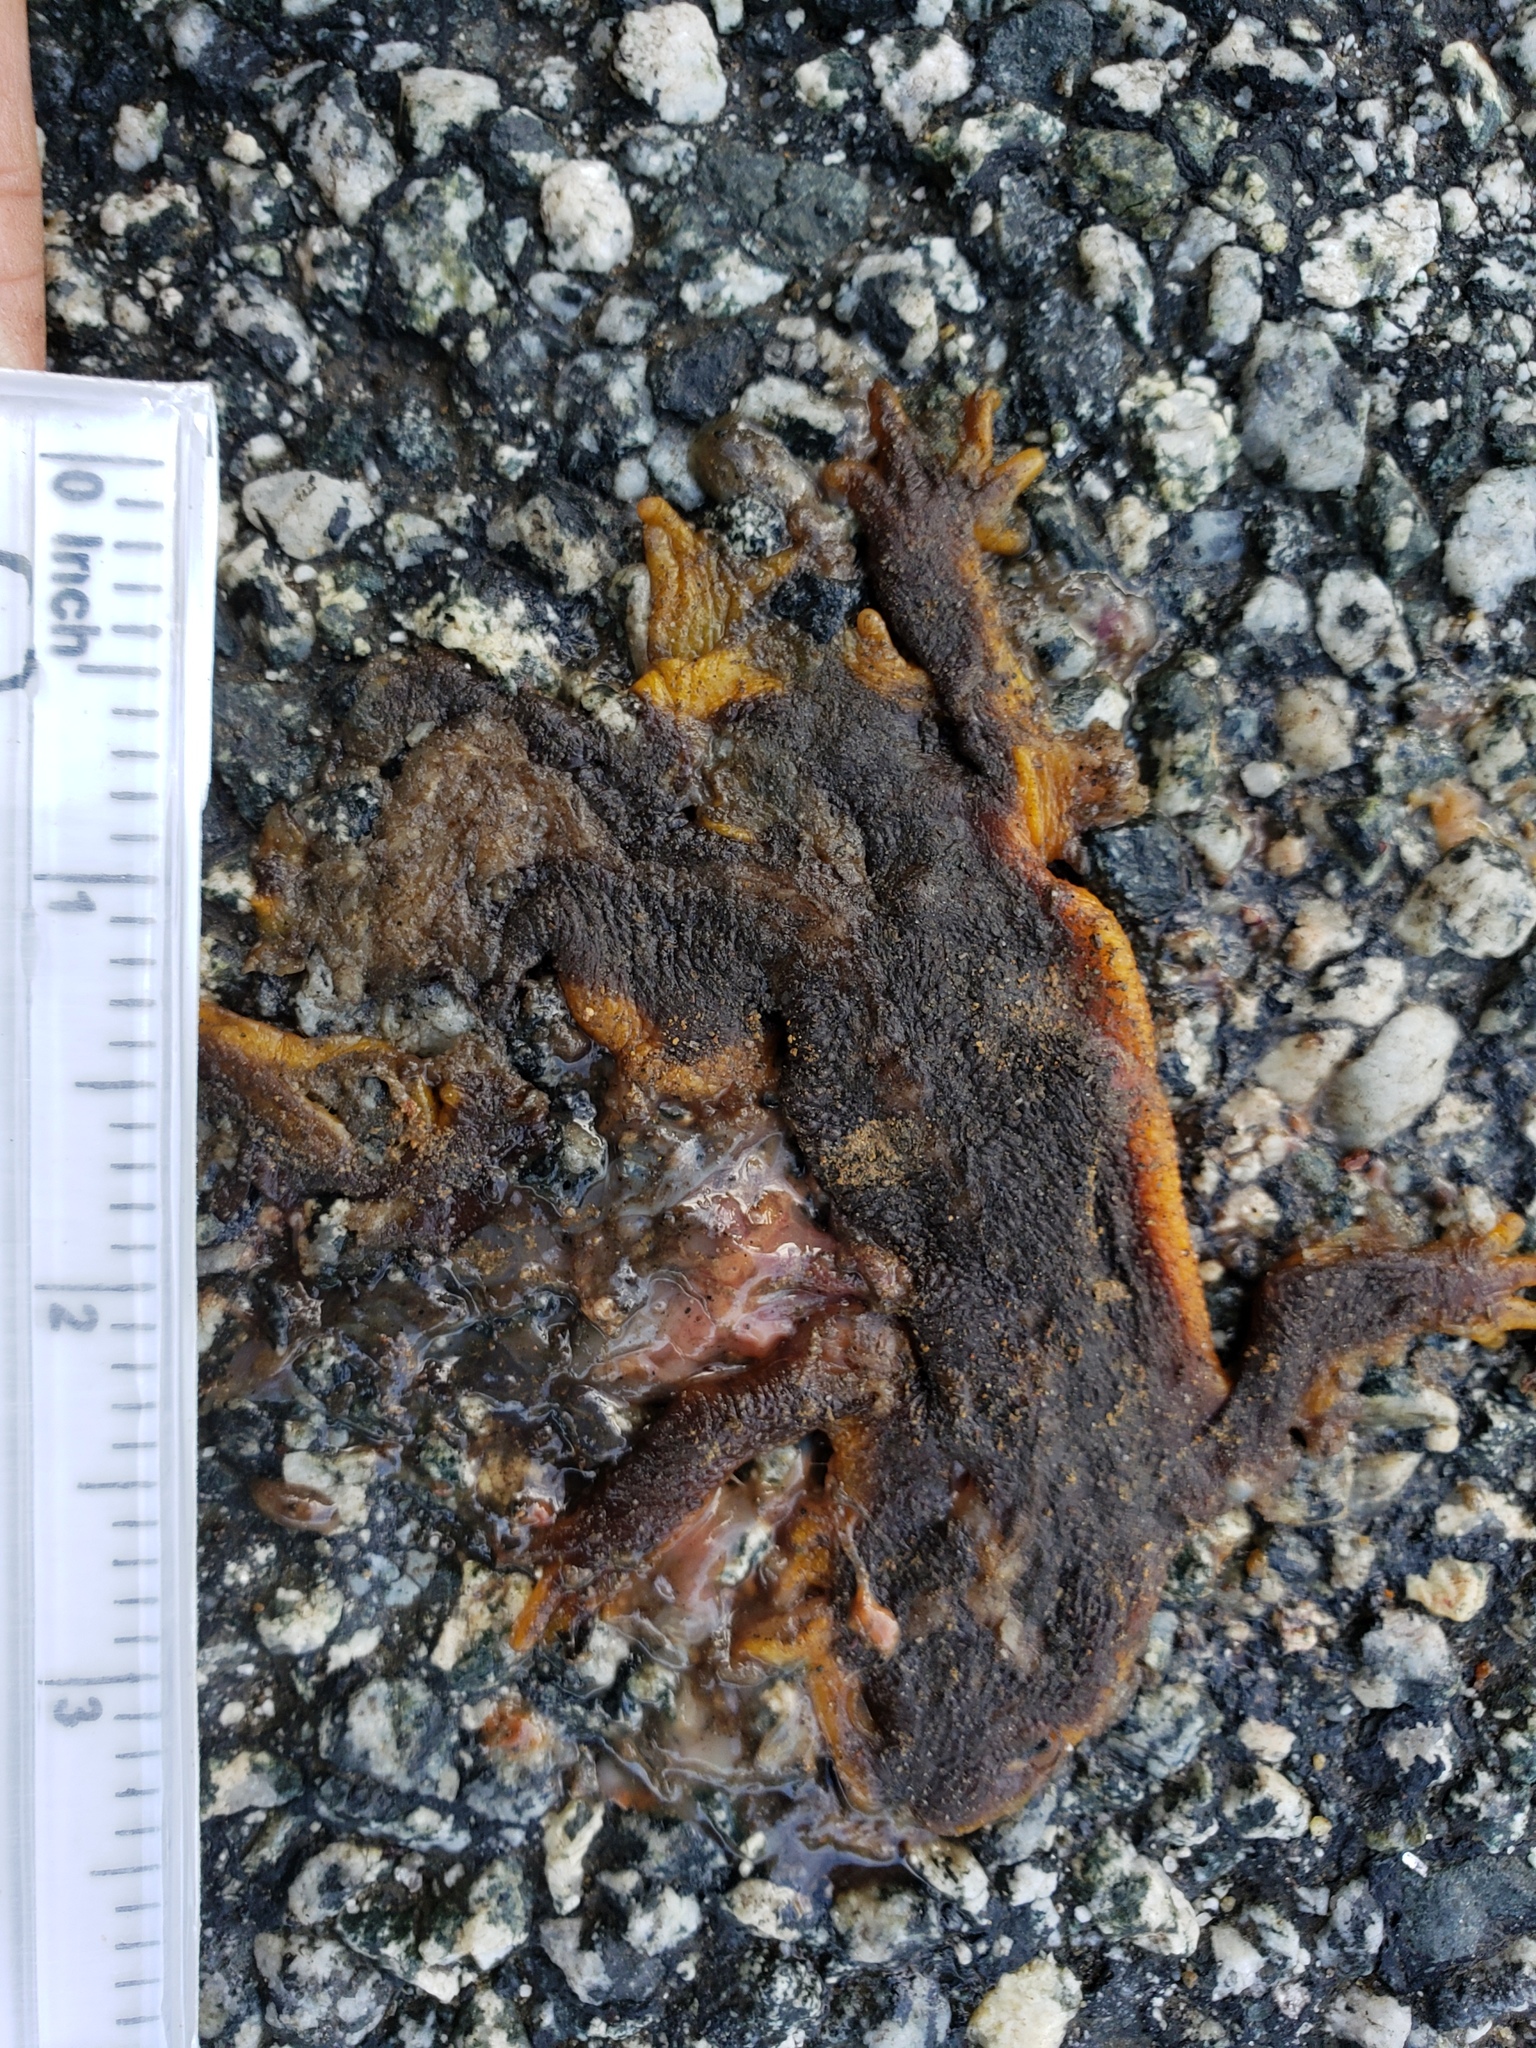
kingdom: Animalia
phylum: Chordata
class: Amphibia
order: Caudata
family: Salamandridae
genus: Taricha
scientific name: Taricha
